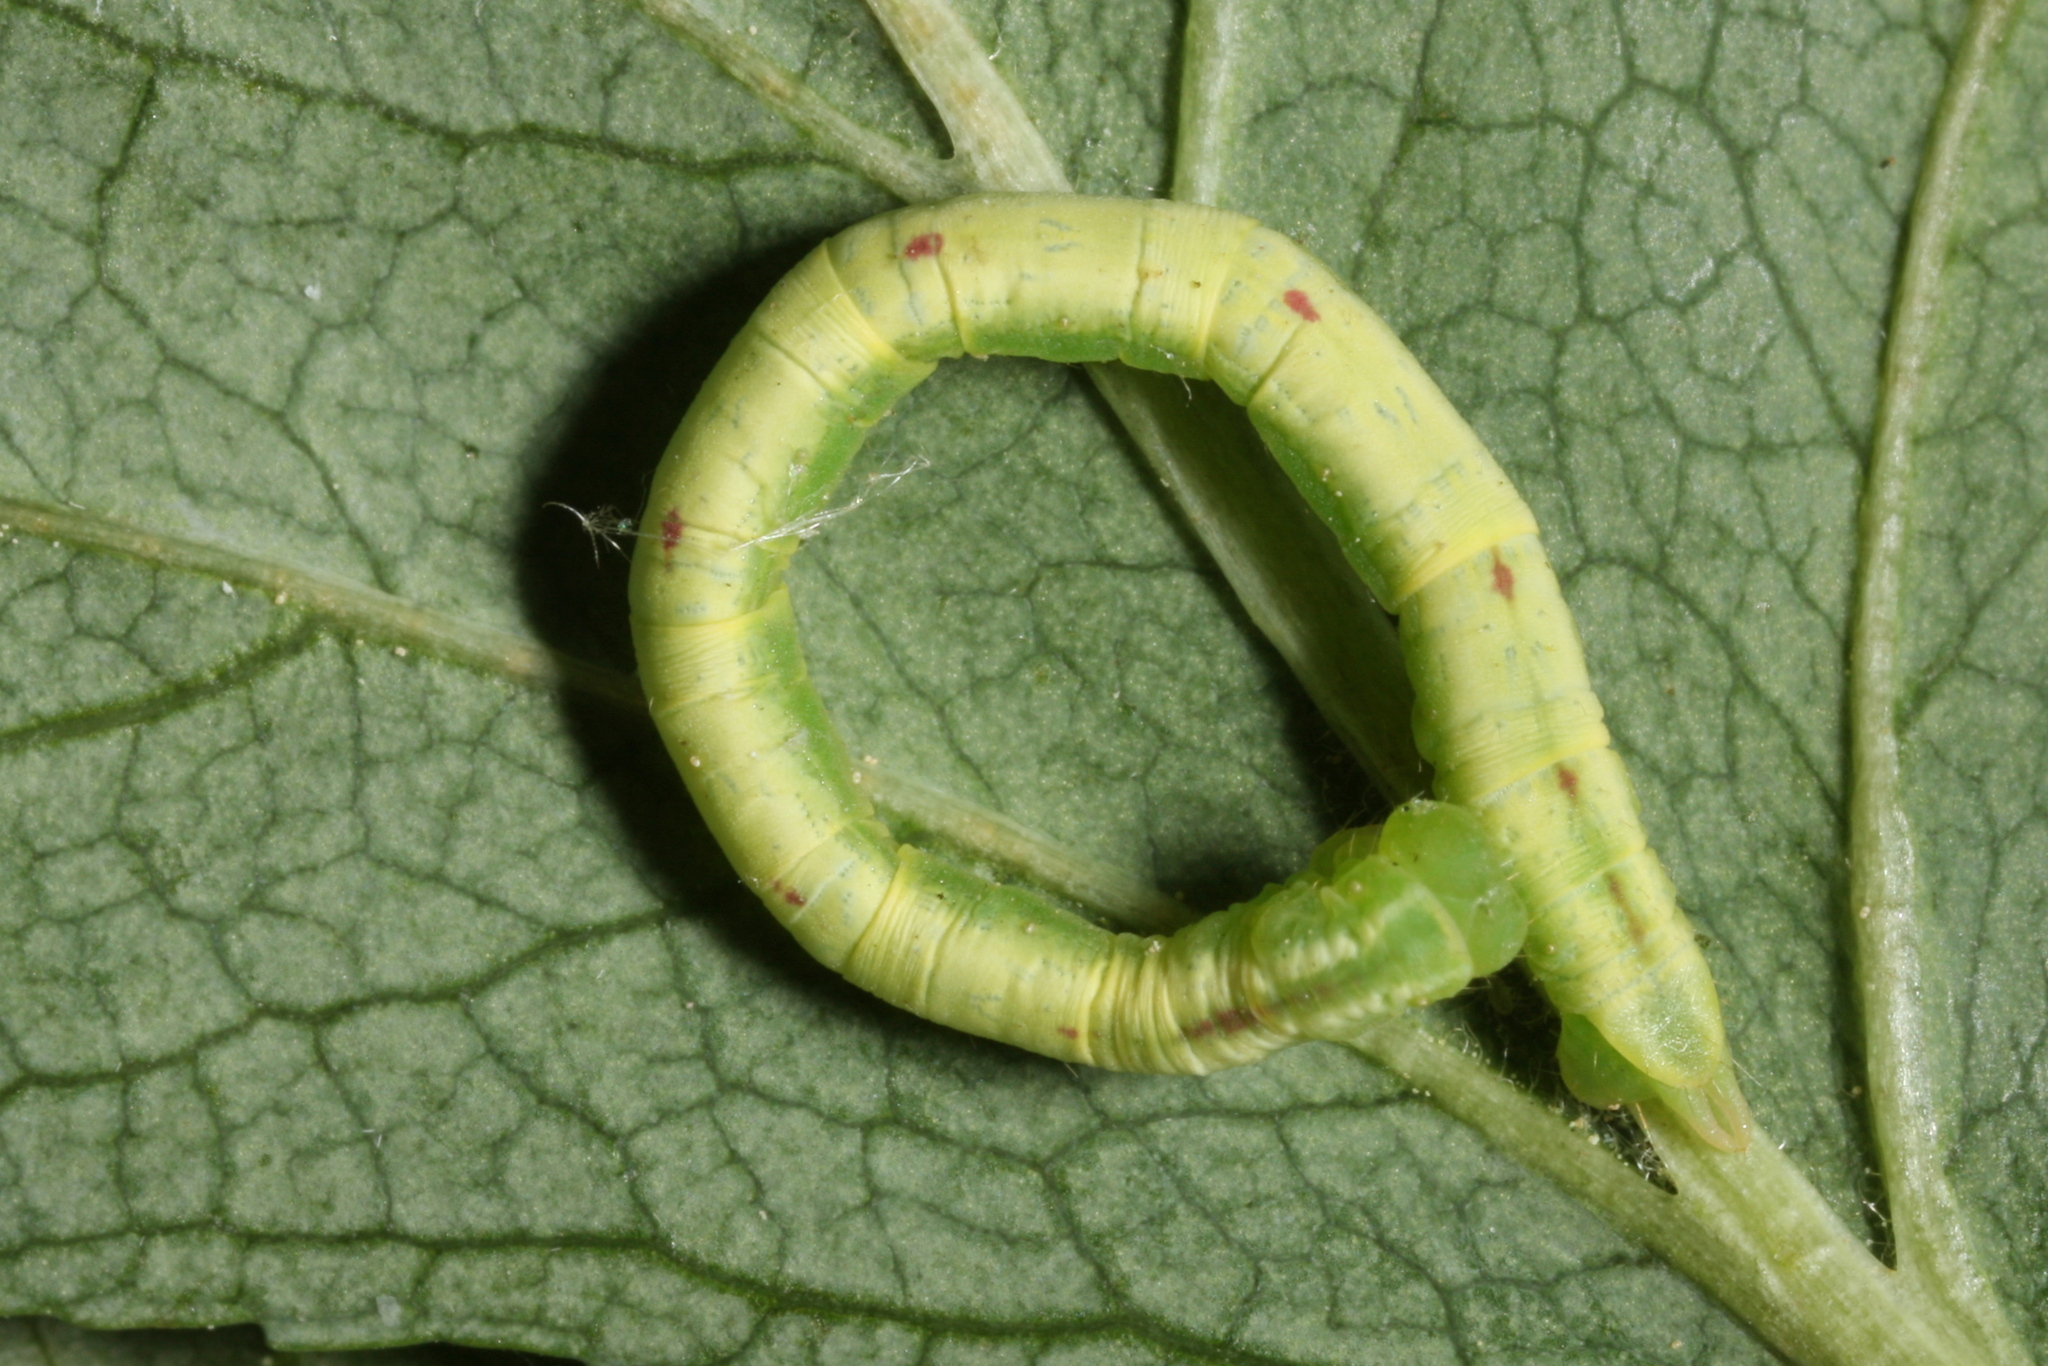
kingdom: Animalia
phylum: Arthropoda
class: Insecta
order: Lepidoptera
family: Geometridae
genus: Chloroclysta
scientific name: Chloroclysta siterata
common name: Red-green carpet
